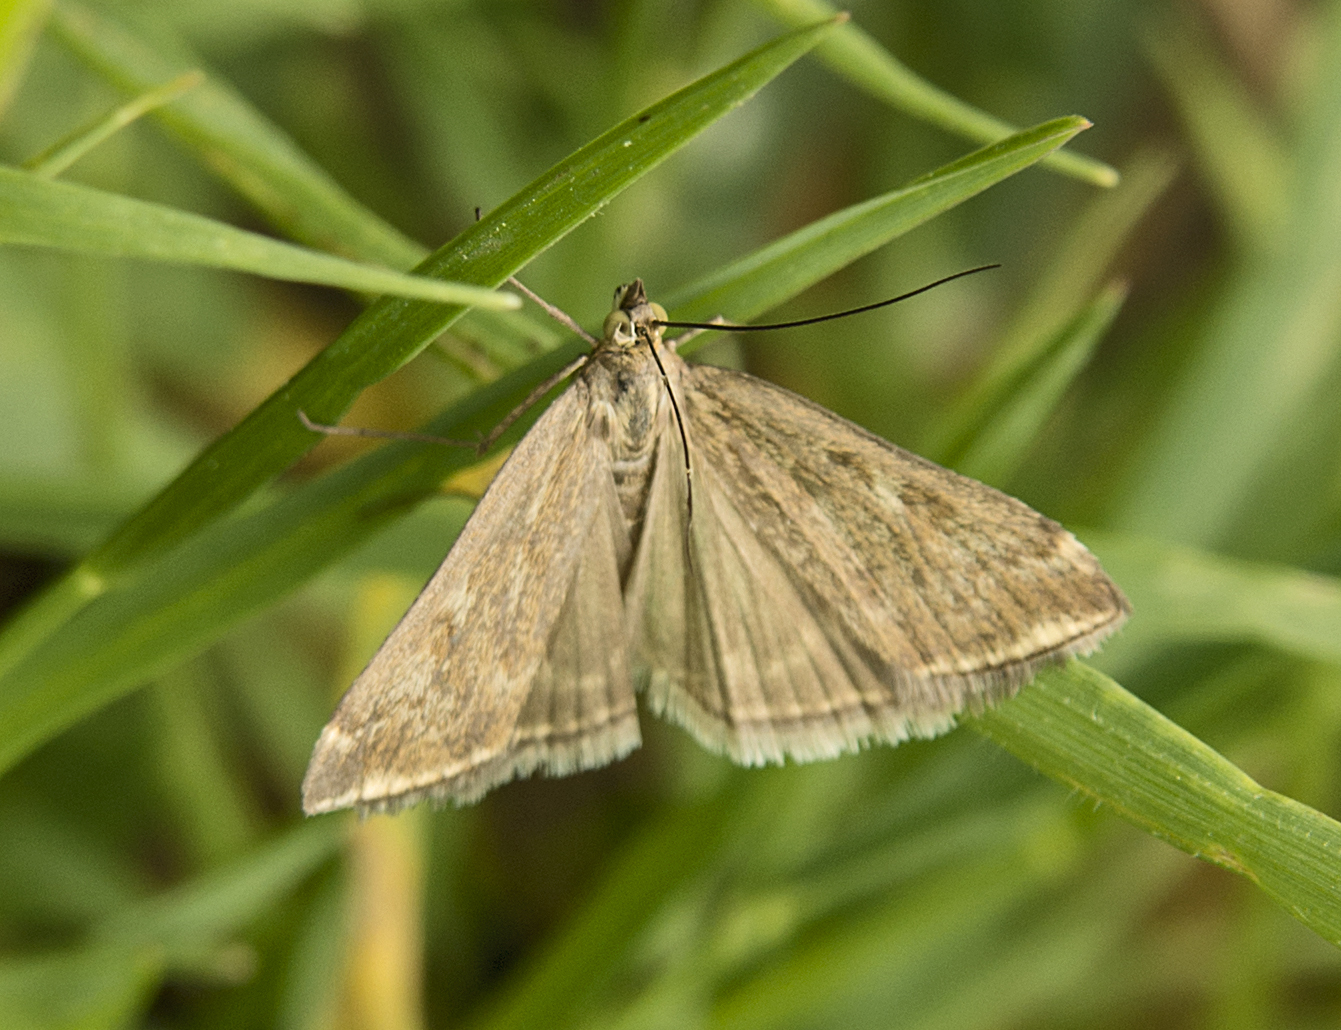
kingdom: Animalia
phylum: Arthropoda
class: Insecta
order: Lepidoptera
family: Crambidae
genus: Loxostege
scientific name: Loxostege sticticalis
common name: Crambid moth
